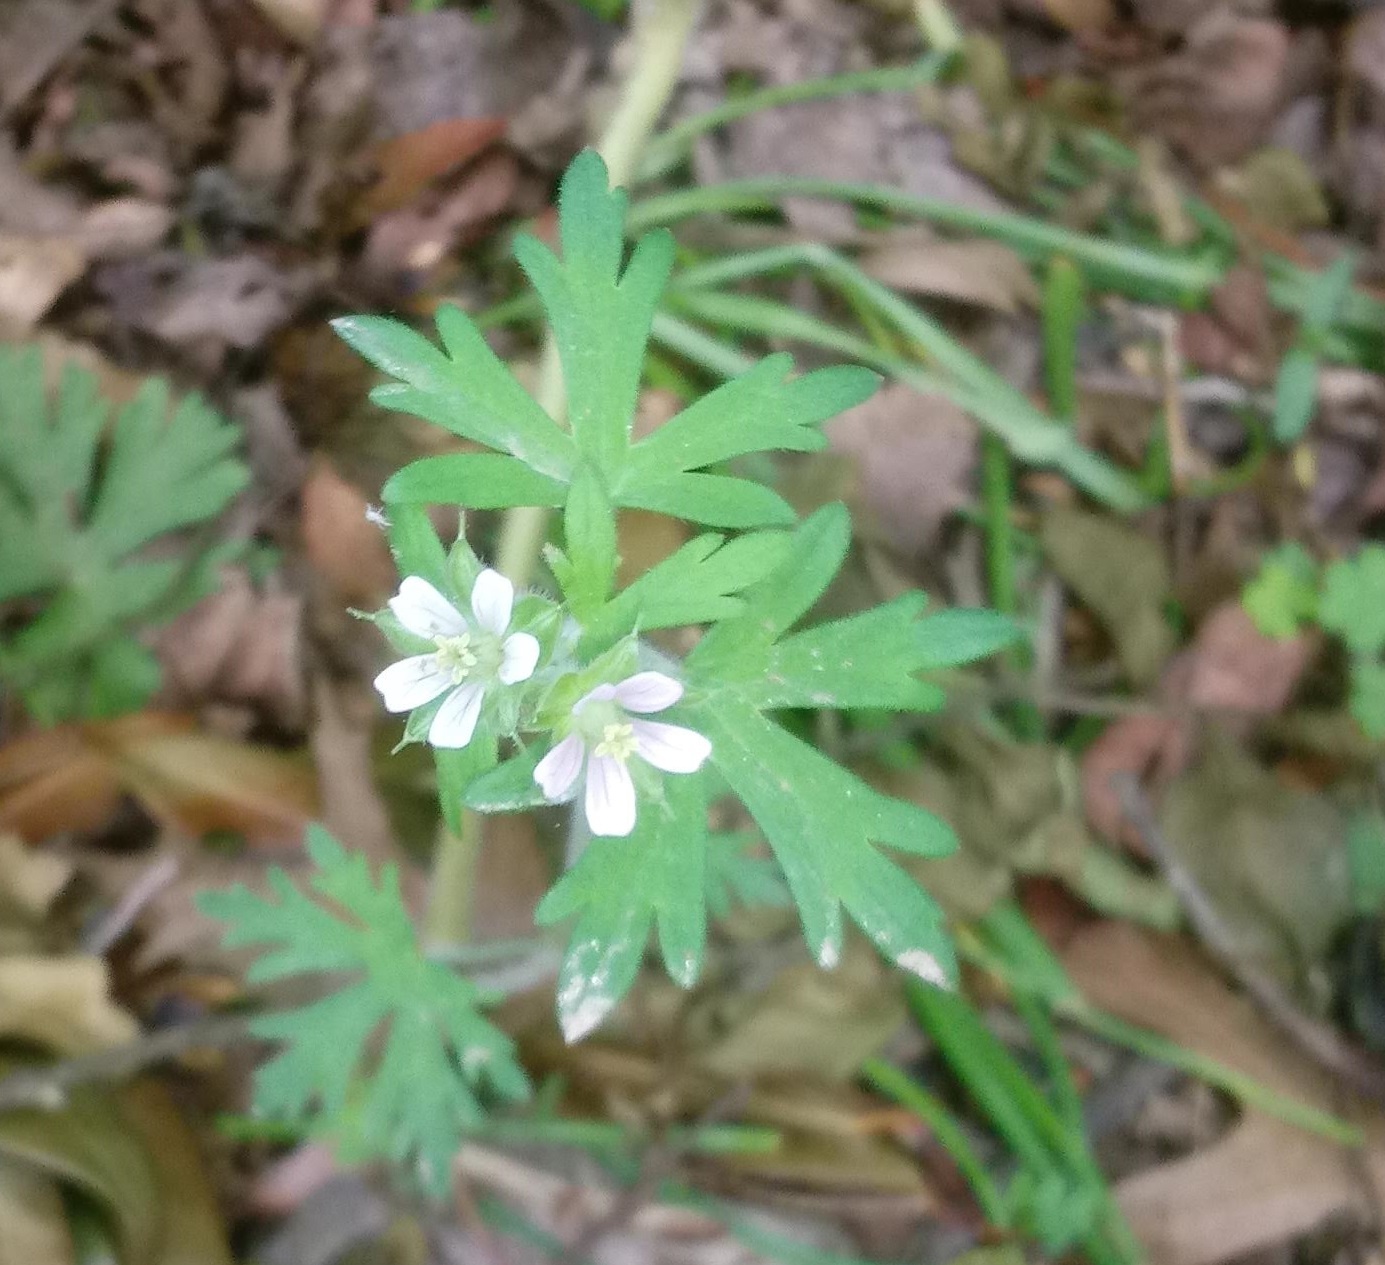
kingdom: Plantae
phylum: Tracheophyta
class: Magnoliopsida
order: Geraniales
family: Geraniaceae
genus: Geranium
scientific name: Geranium carolinianum
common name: Carolina crane's-bill
